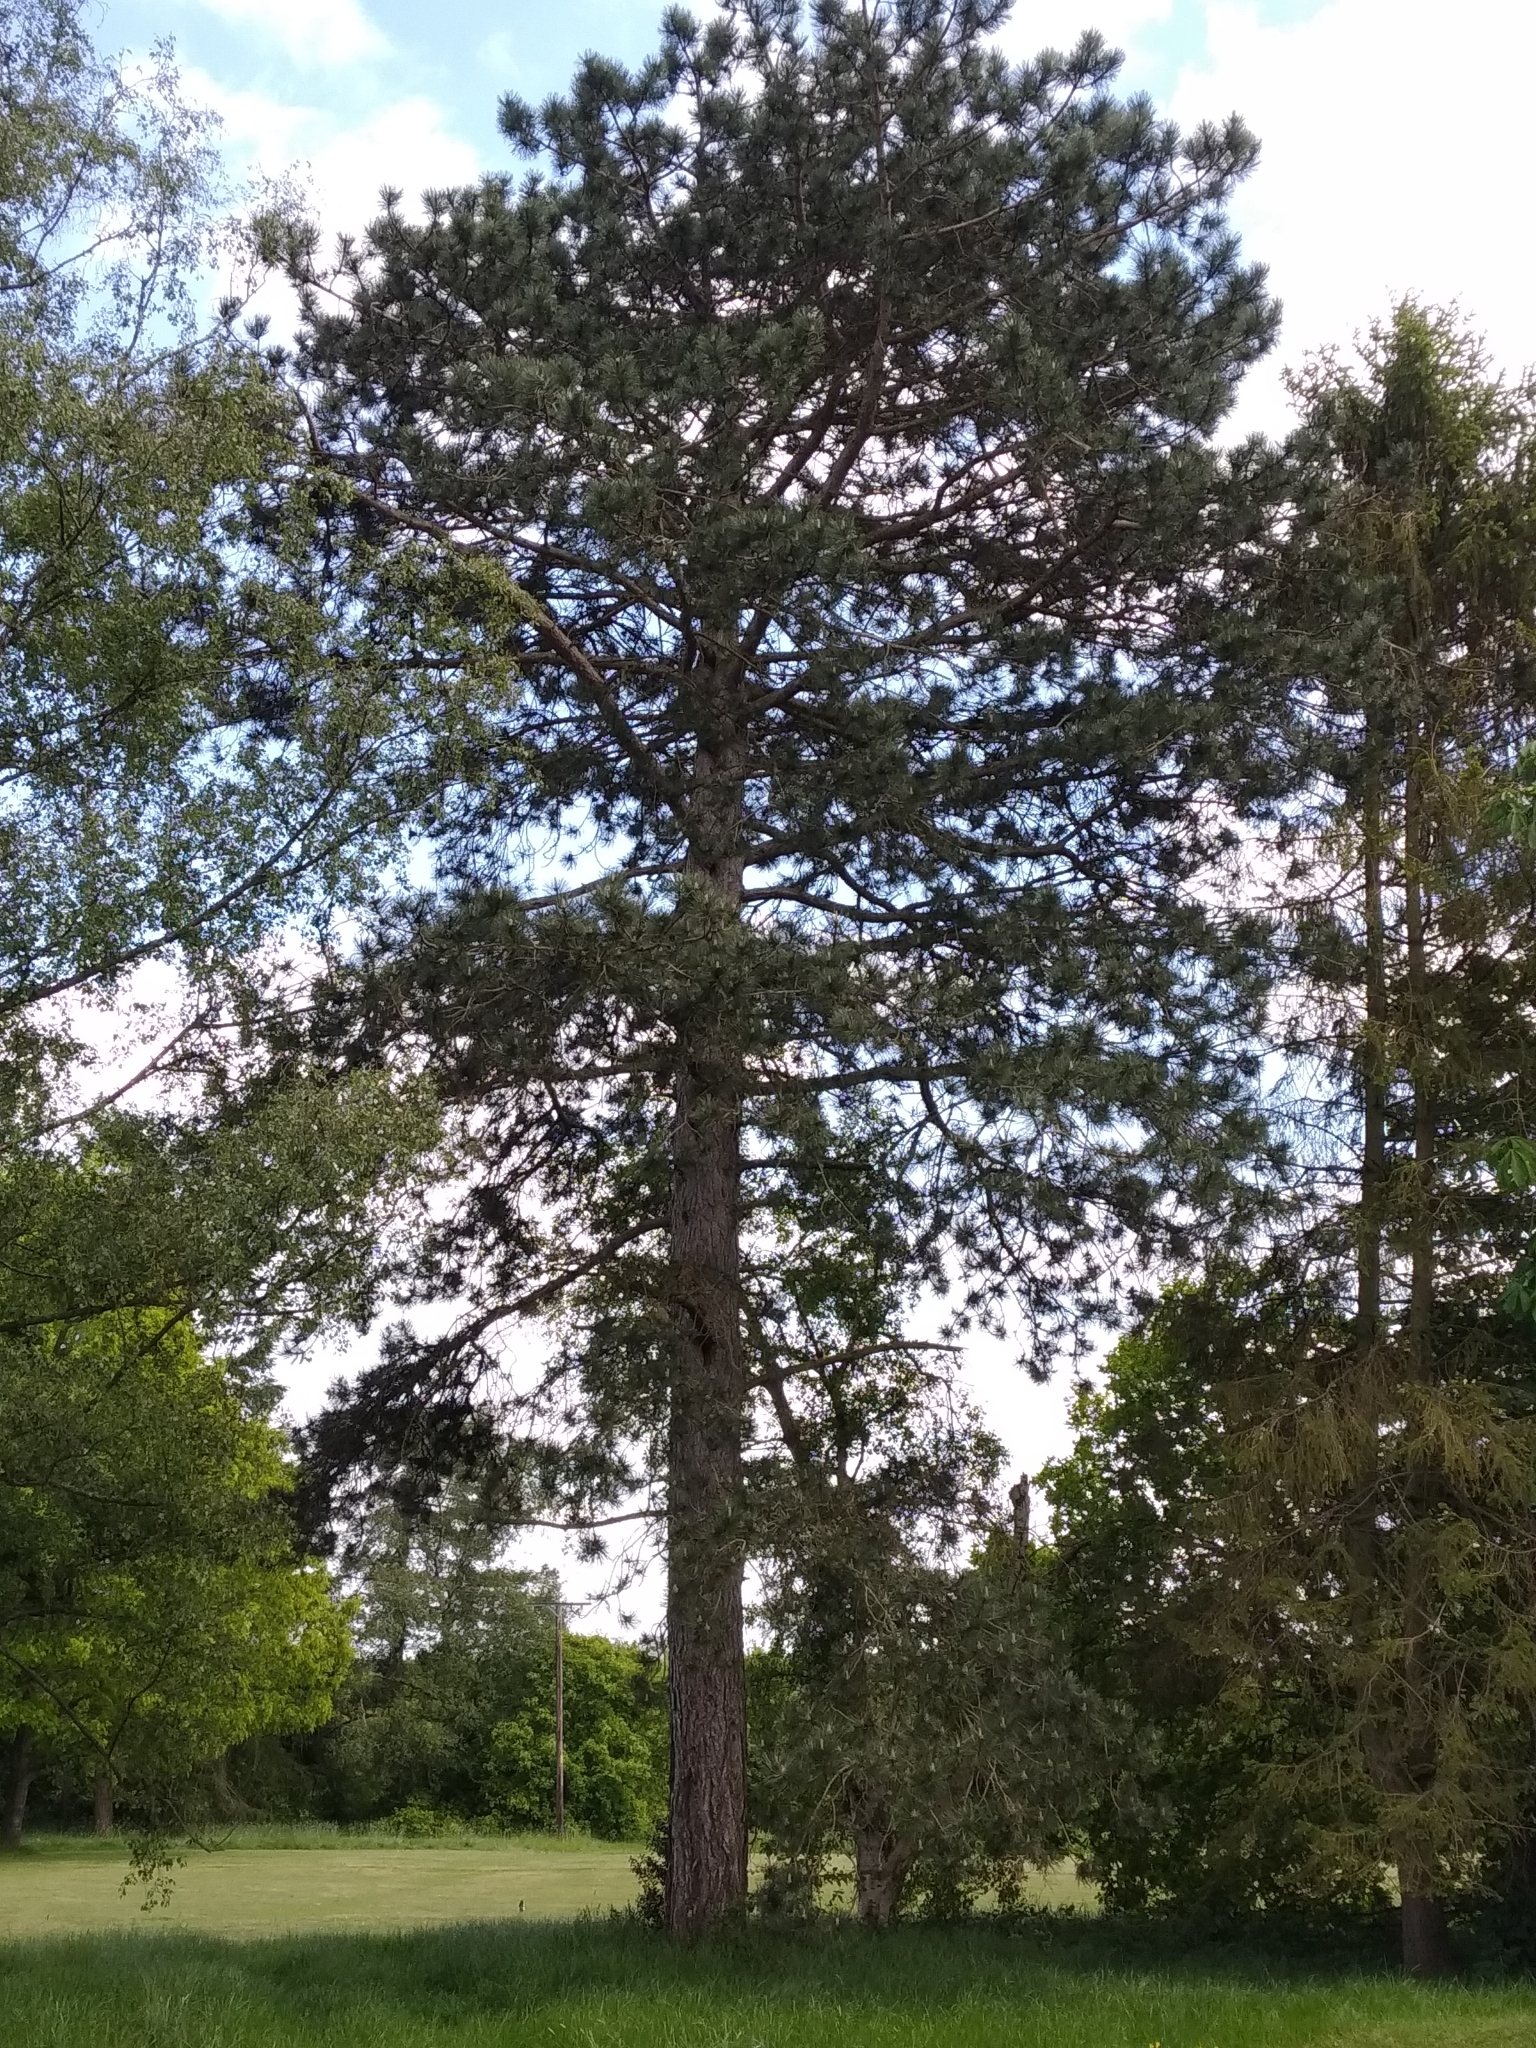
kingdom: Plantae
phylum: Tracheophyta
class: Pinopsida
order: Pinales
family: Pinaceae
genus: Pinus
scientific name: Pinus sylvestris
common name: Scots pine
